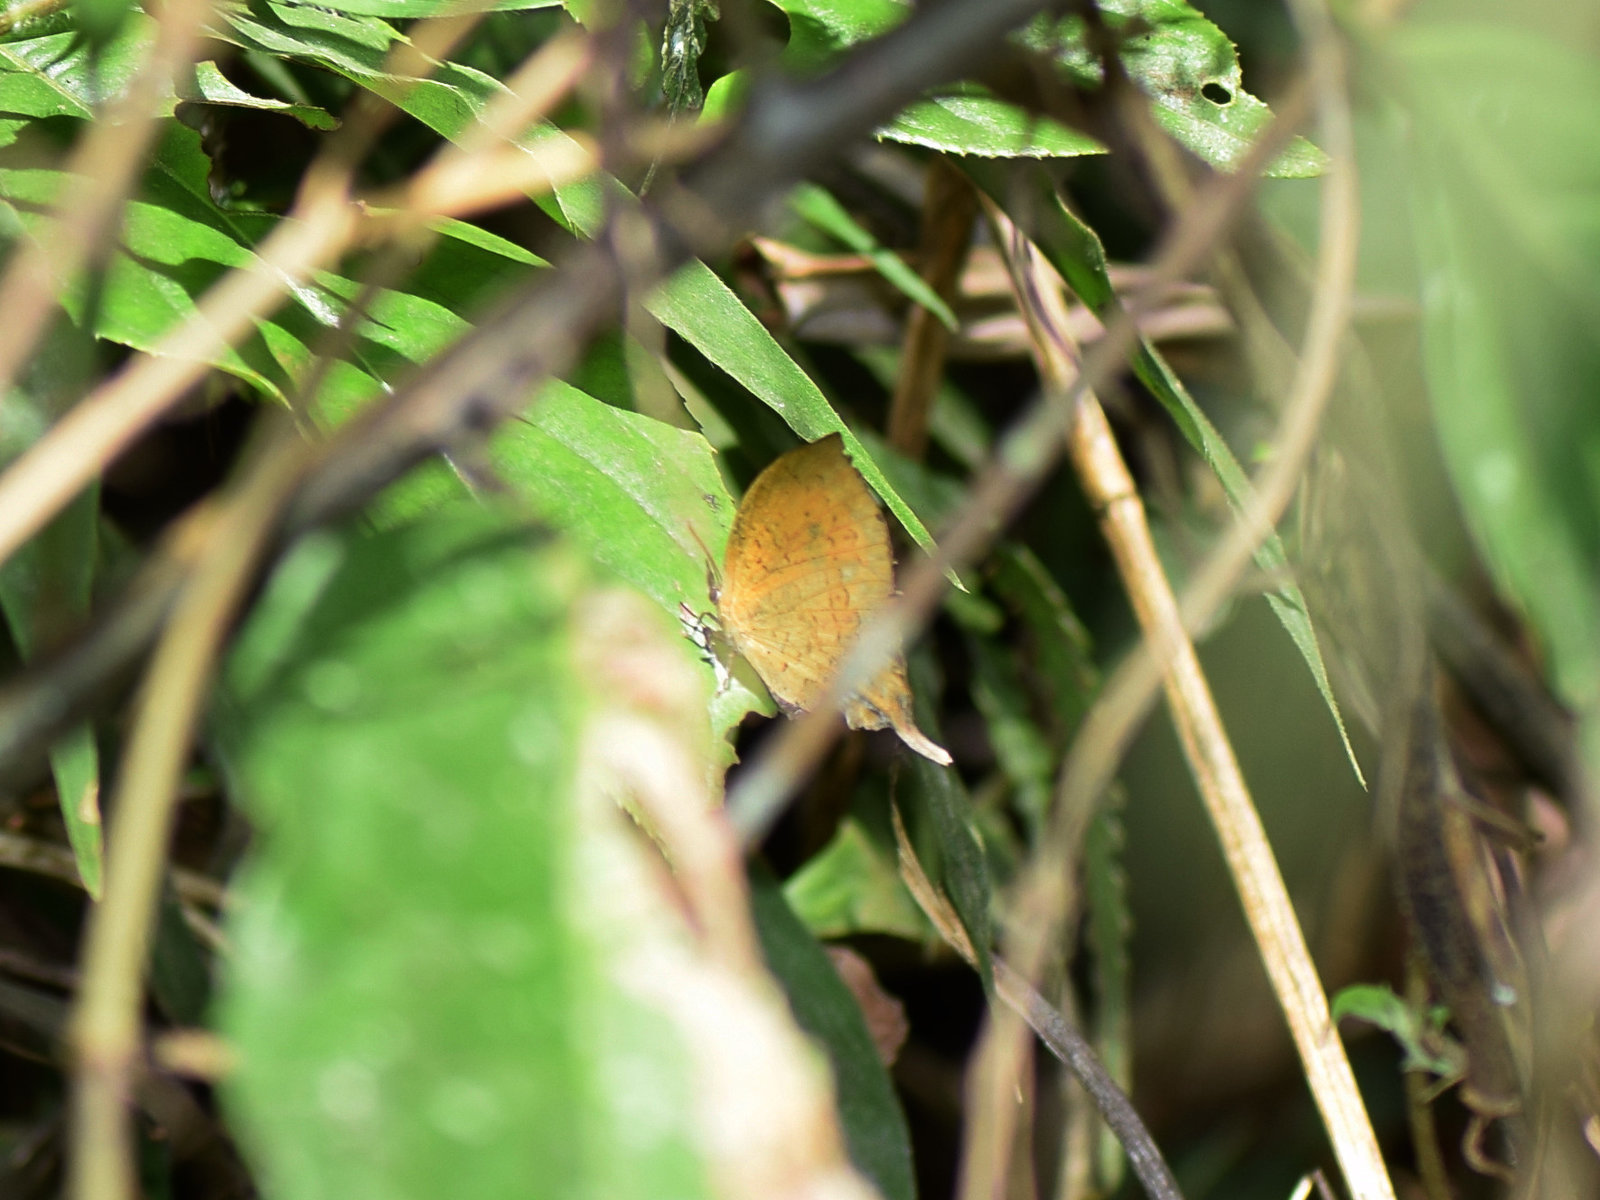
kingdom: Animalia
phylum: Arthropoda
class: Insecta
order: Lepidoptera
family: Lycaenidae
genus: Yasoda
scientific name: Yasoda pita
